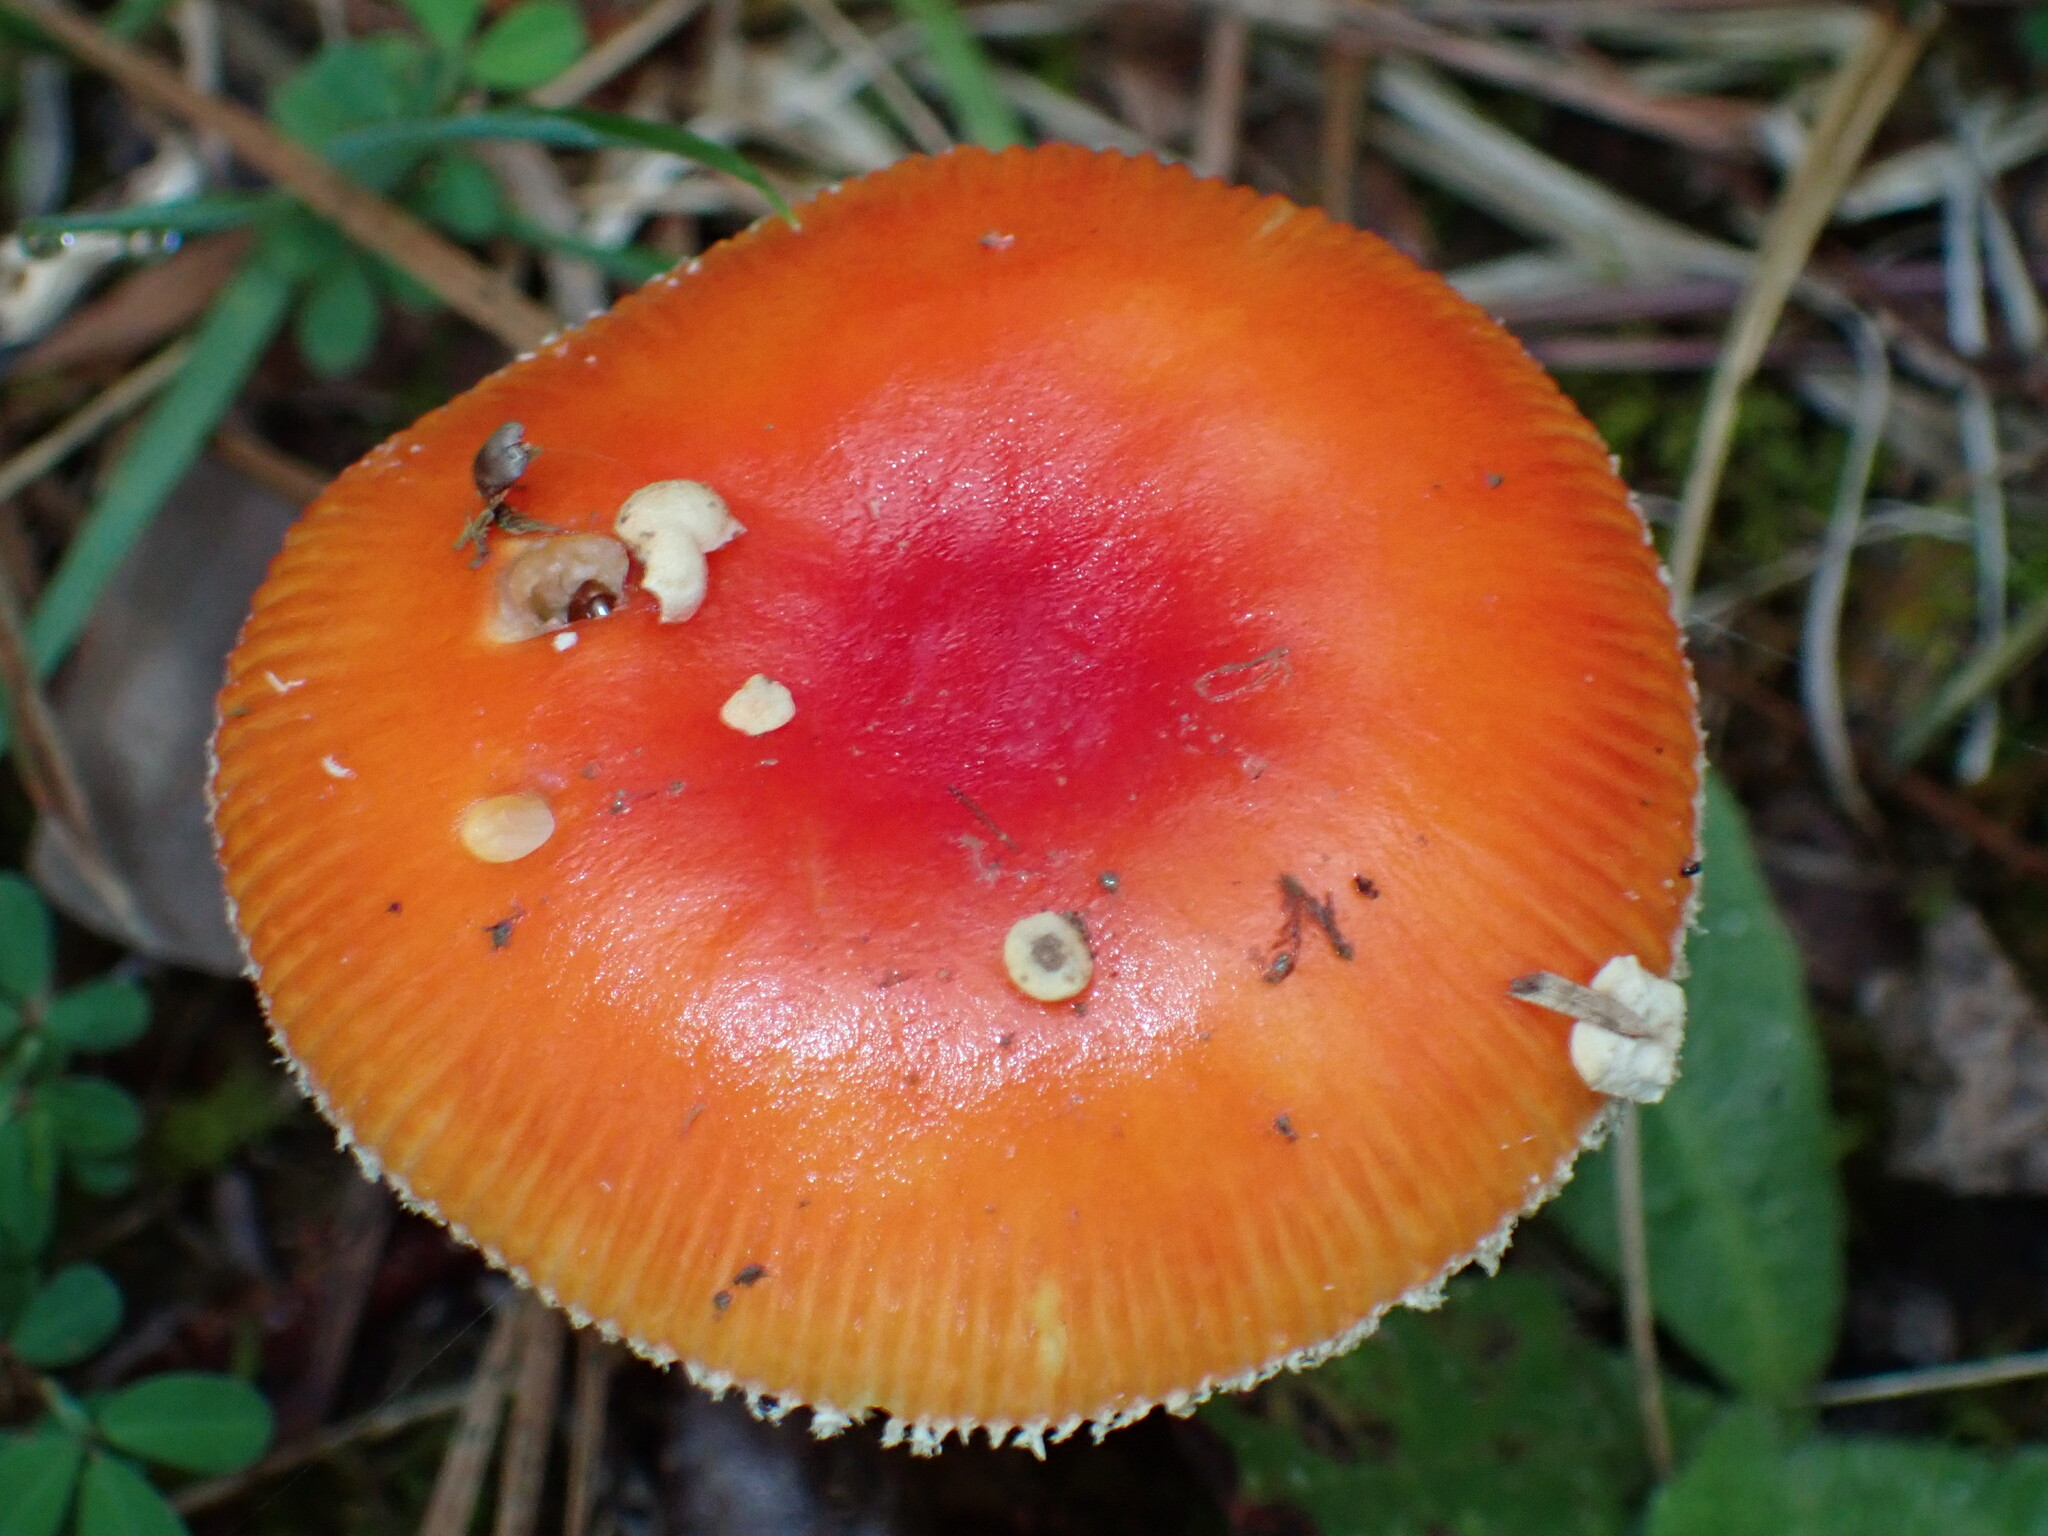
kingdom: Fungi
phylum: Basidiomycota
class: Agaricomycetes
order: Agaricales
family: Amanitaceae
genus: Amanita
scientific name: Amanita parcivolvata
